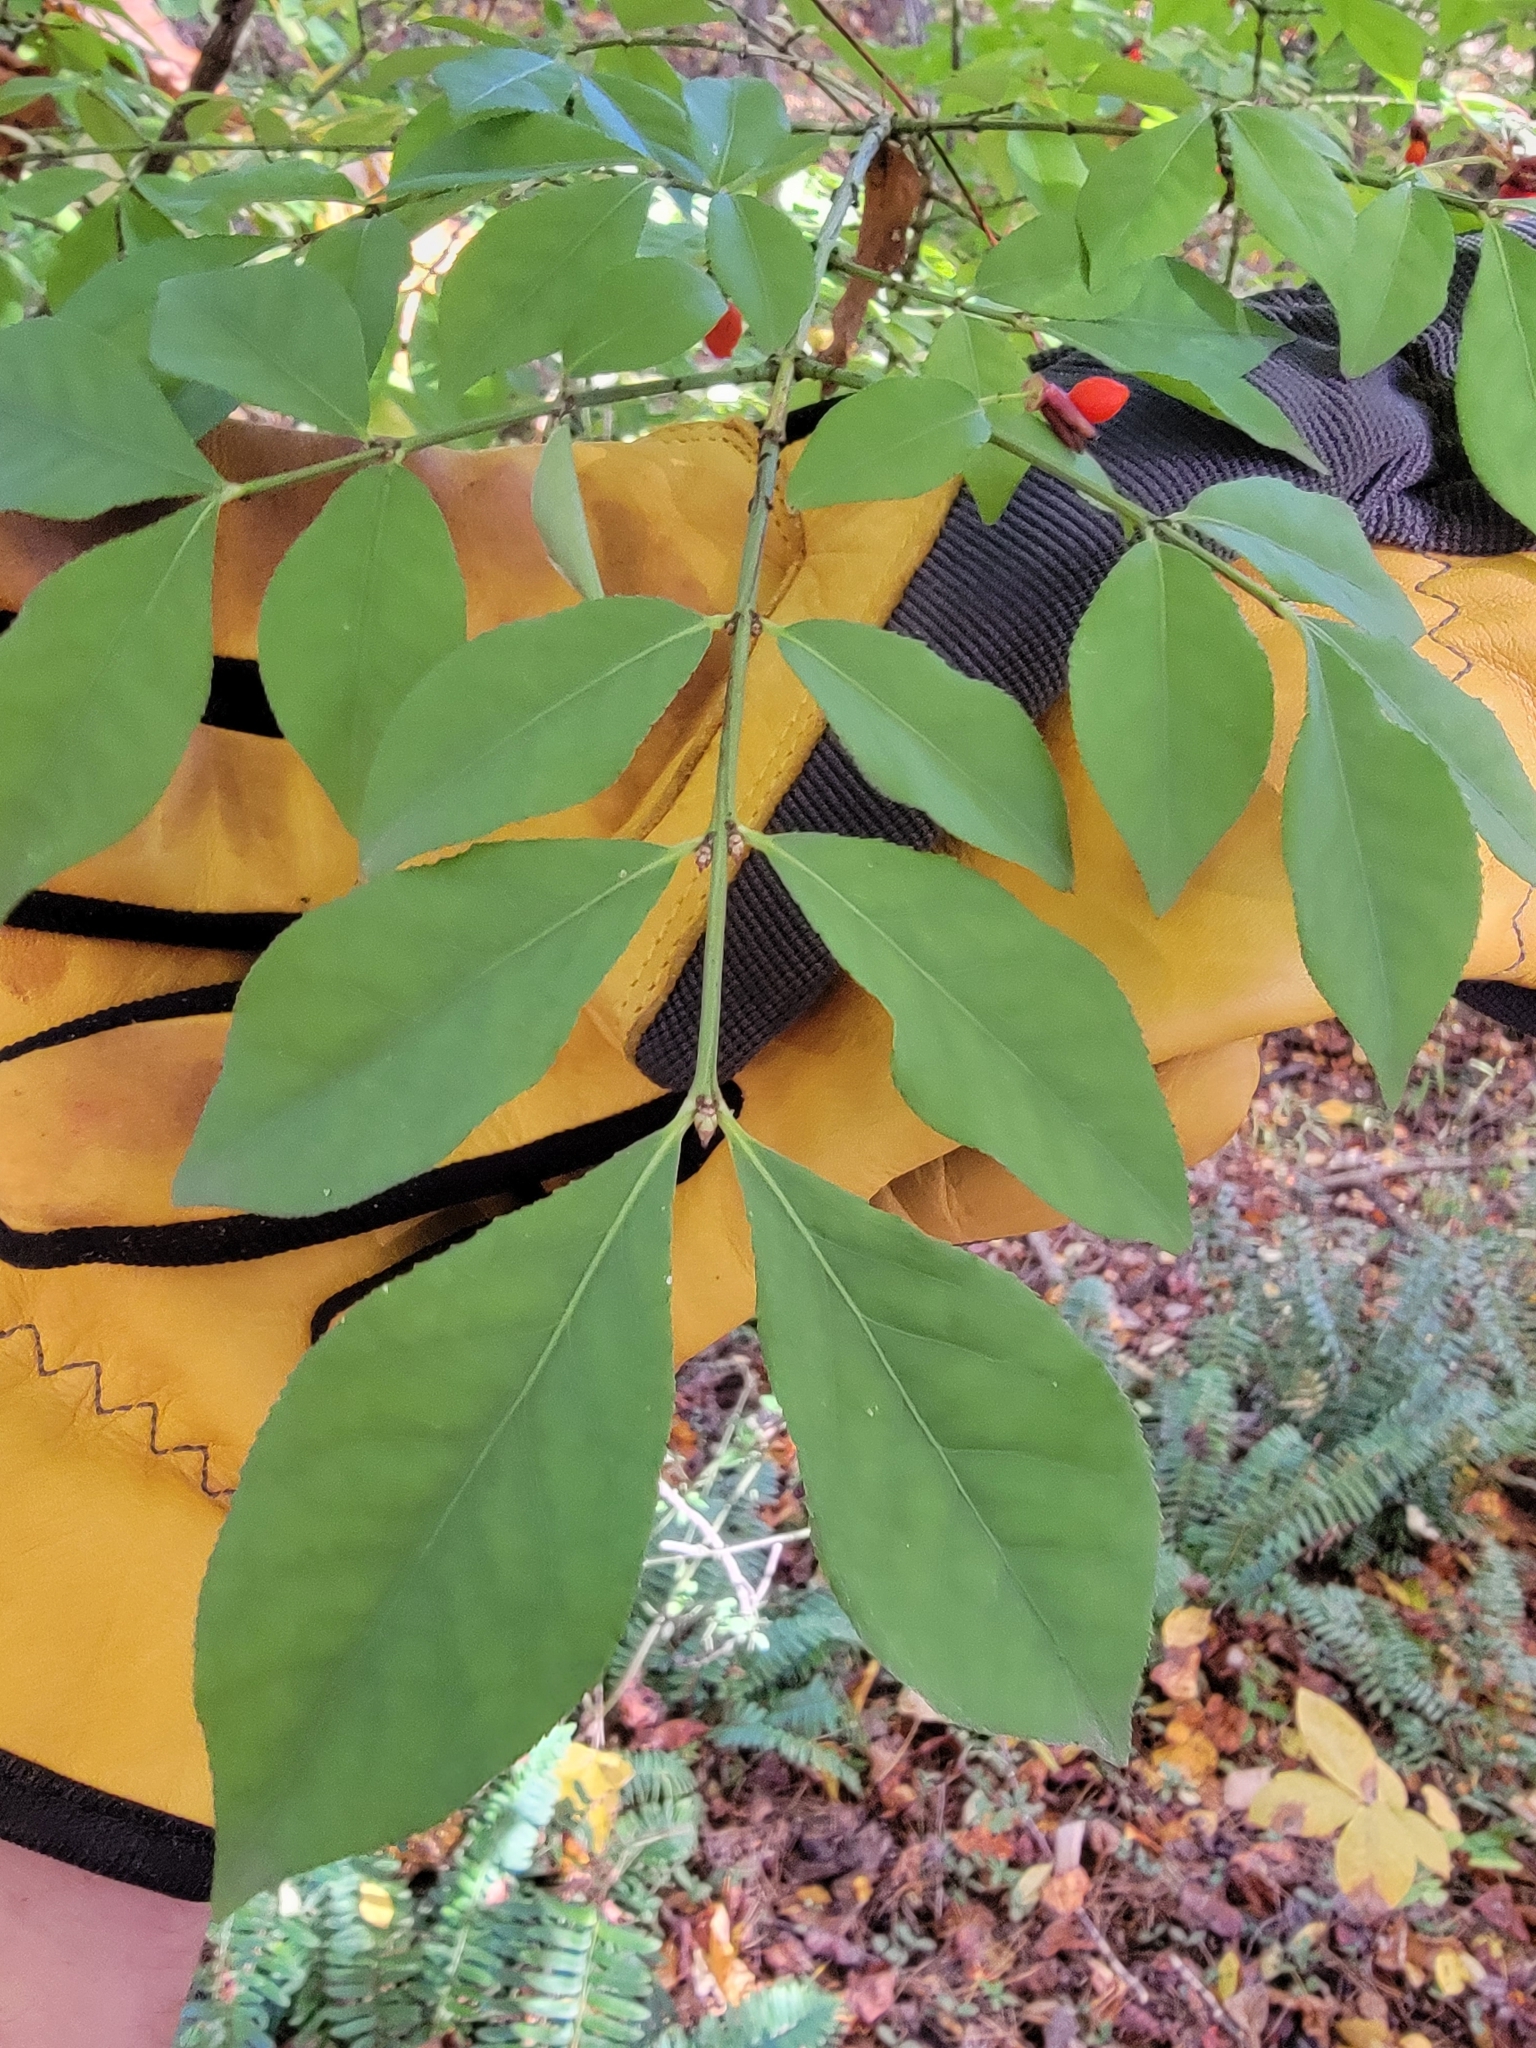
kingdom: Plantae
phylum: Tracheophyta
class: Magnoliopsida
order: Celastrales
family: Celastraceae
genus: Euonymus
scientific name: Euonymus alatus
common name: Winged euonymus
